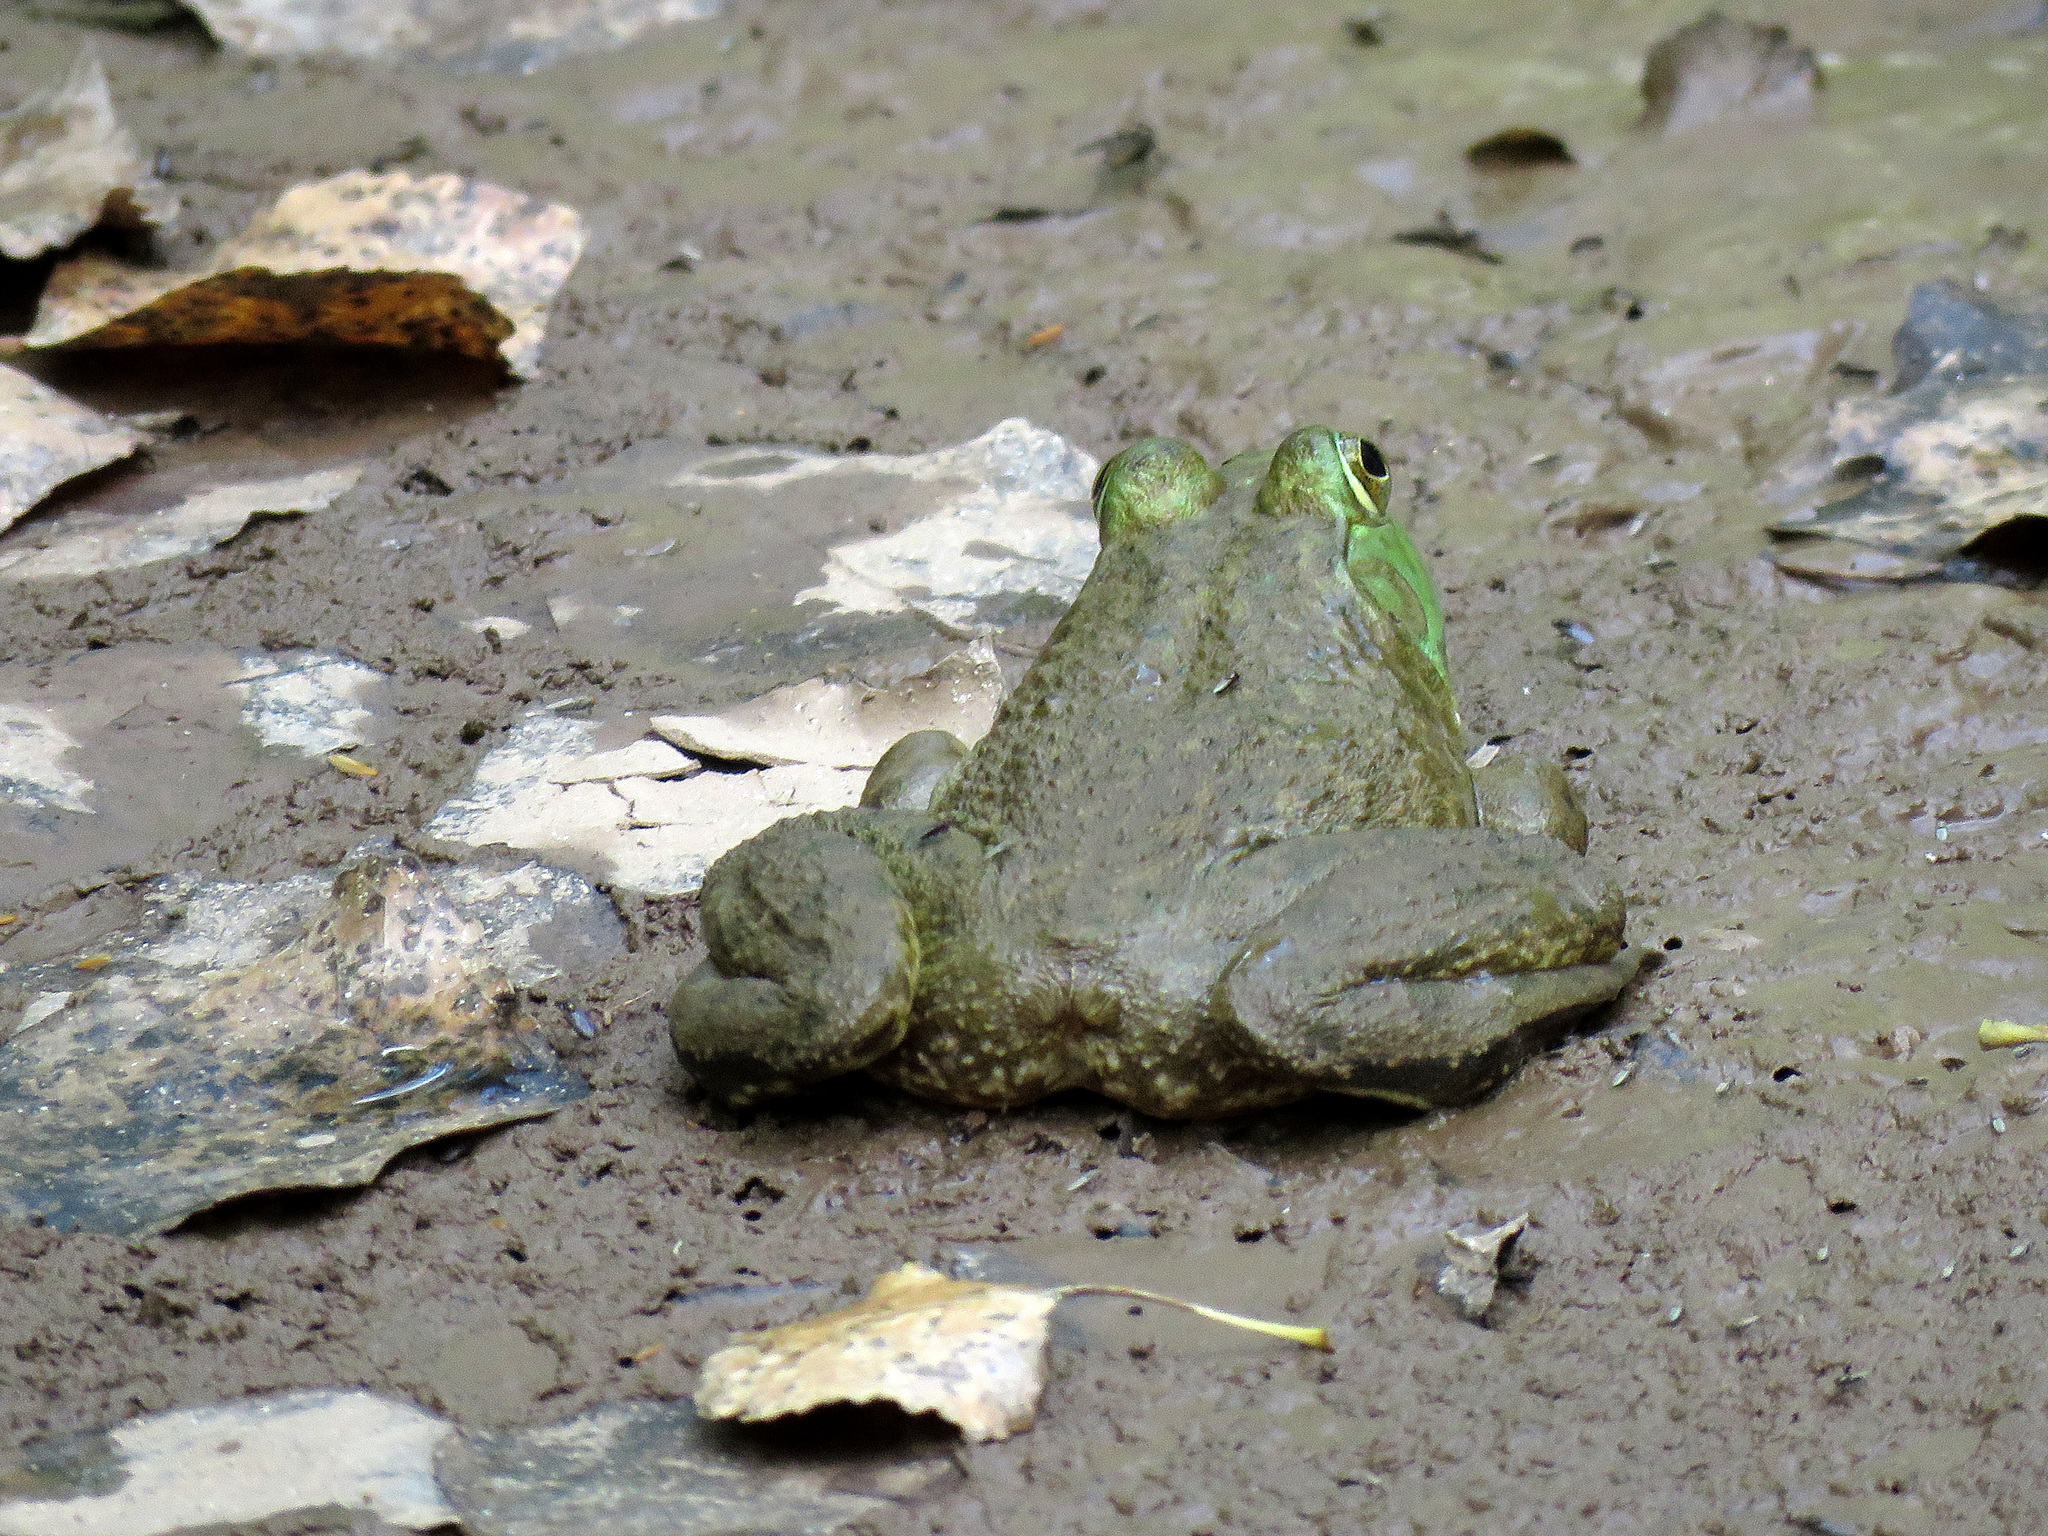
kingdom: Animalia
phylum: Chordata
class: Amphibia
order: Anura
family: Ranidae
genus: Lithobates
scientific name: Lithobates catesbeianus
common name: American bullfrog
